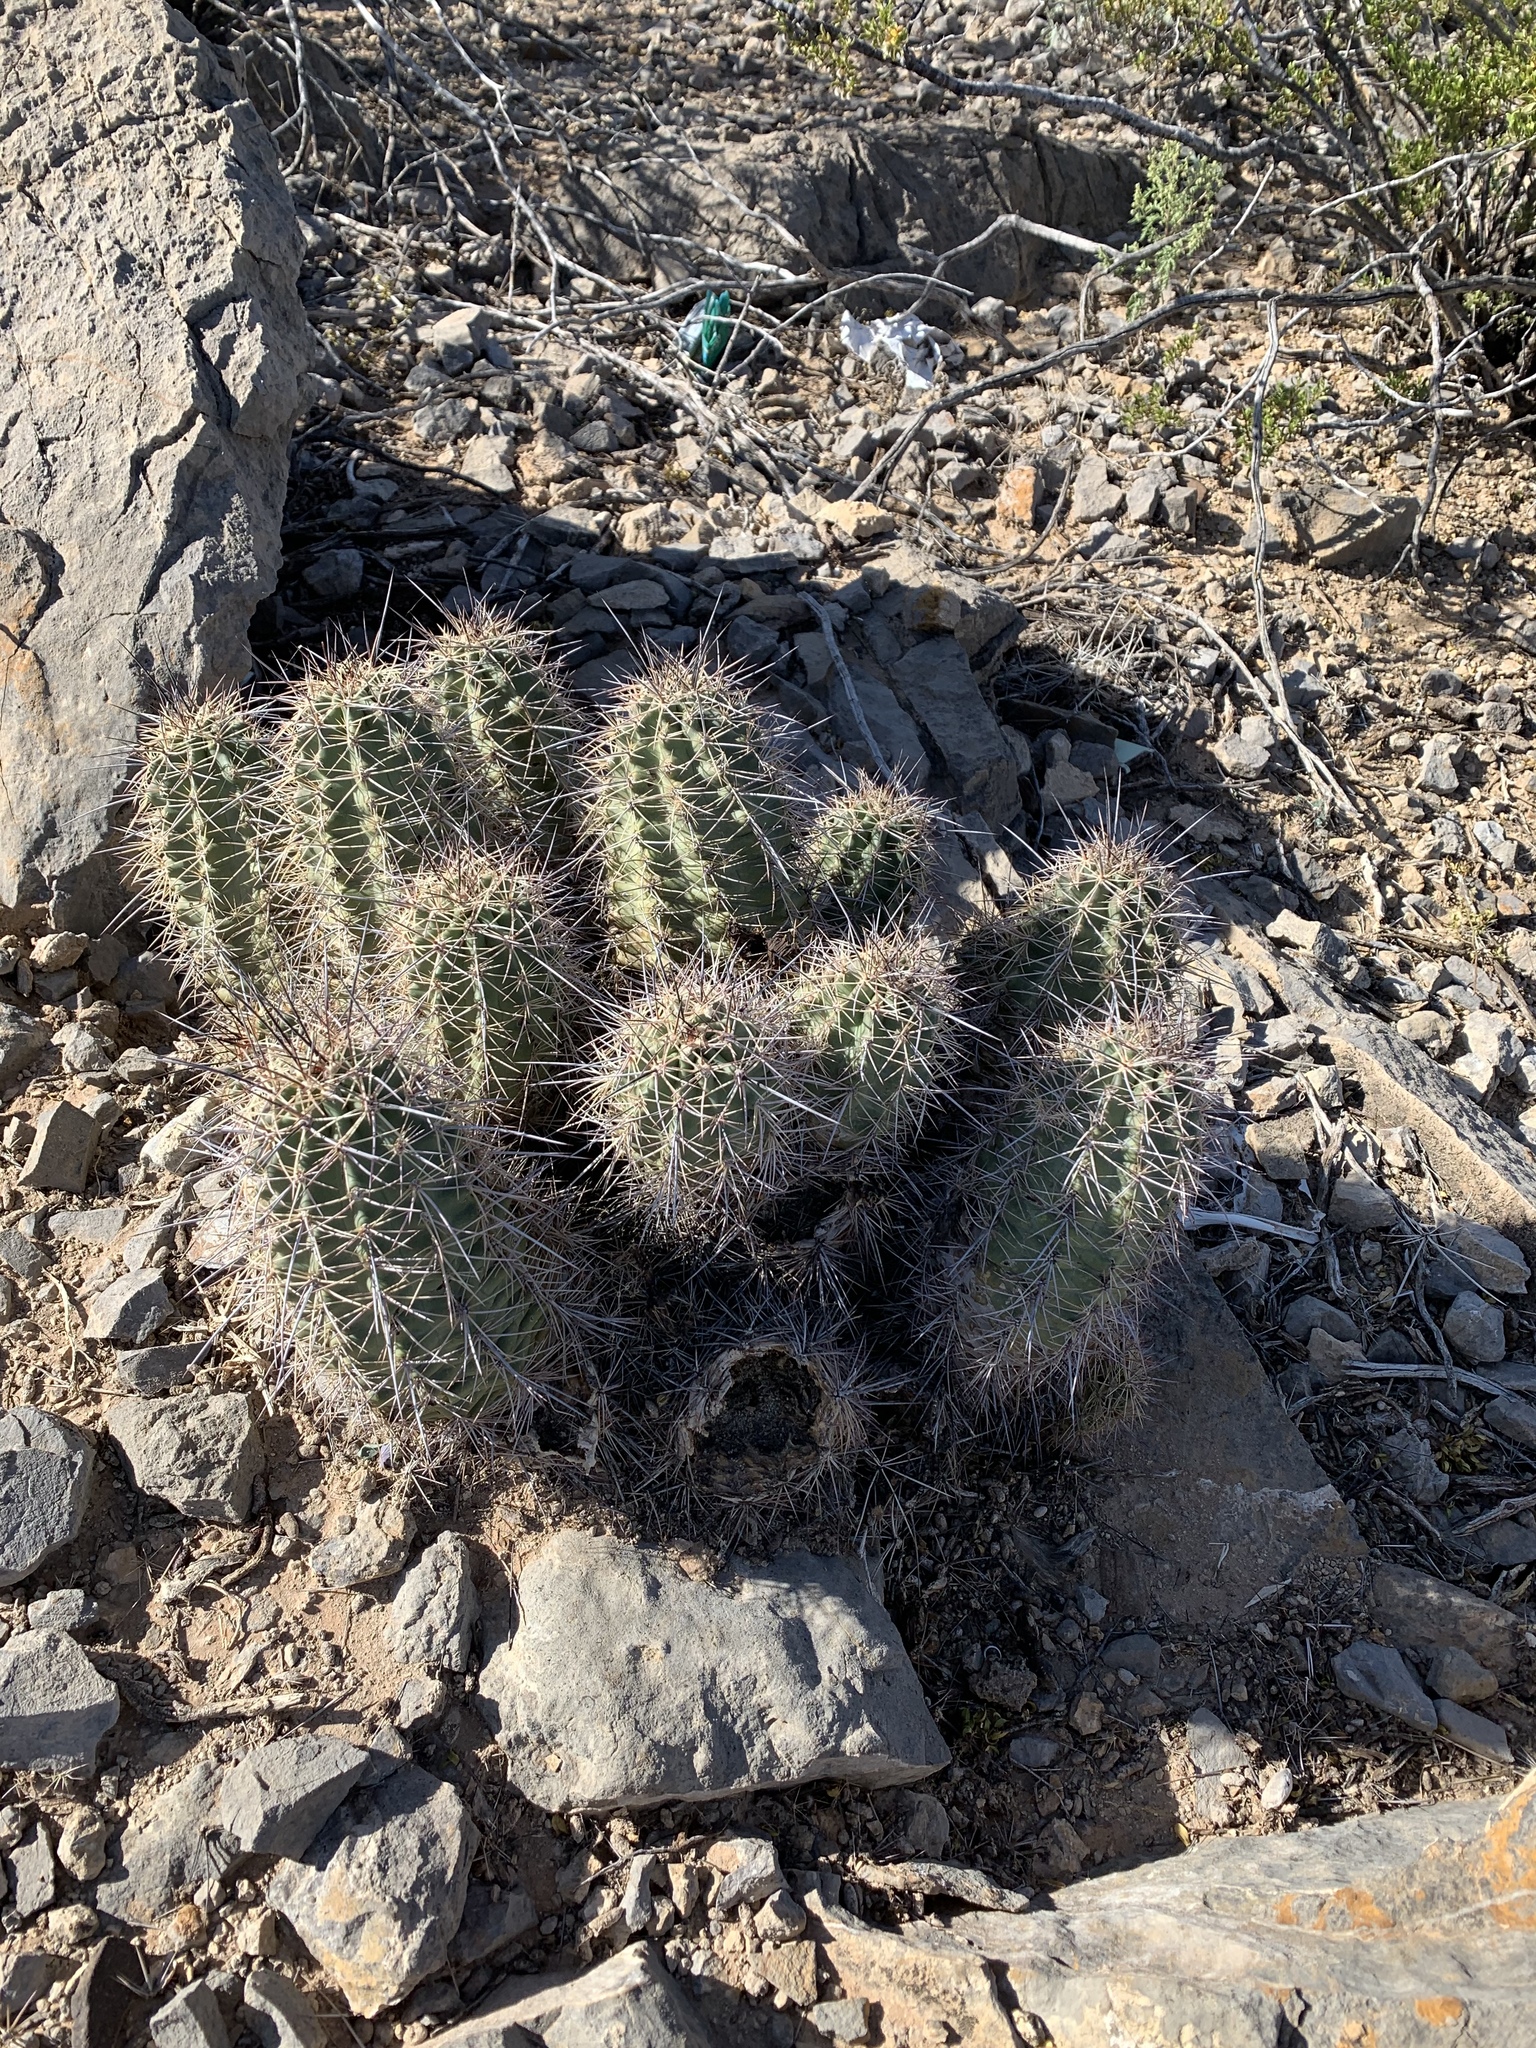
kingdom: Plantae
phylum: Tracheophyta
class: Magnoliopsida
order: Caryophyllales
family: Cactaceae
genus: Echinocereus
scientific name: Echinocereus coccineus
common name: Scarlet hedgehog cactus
